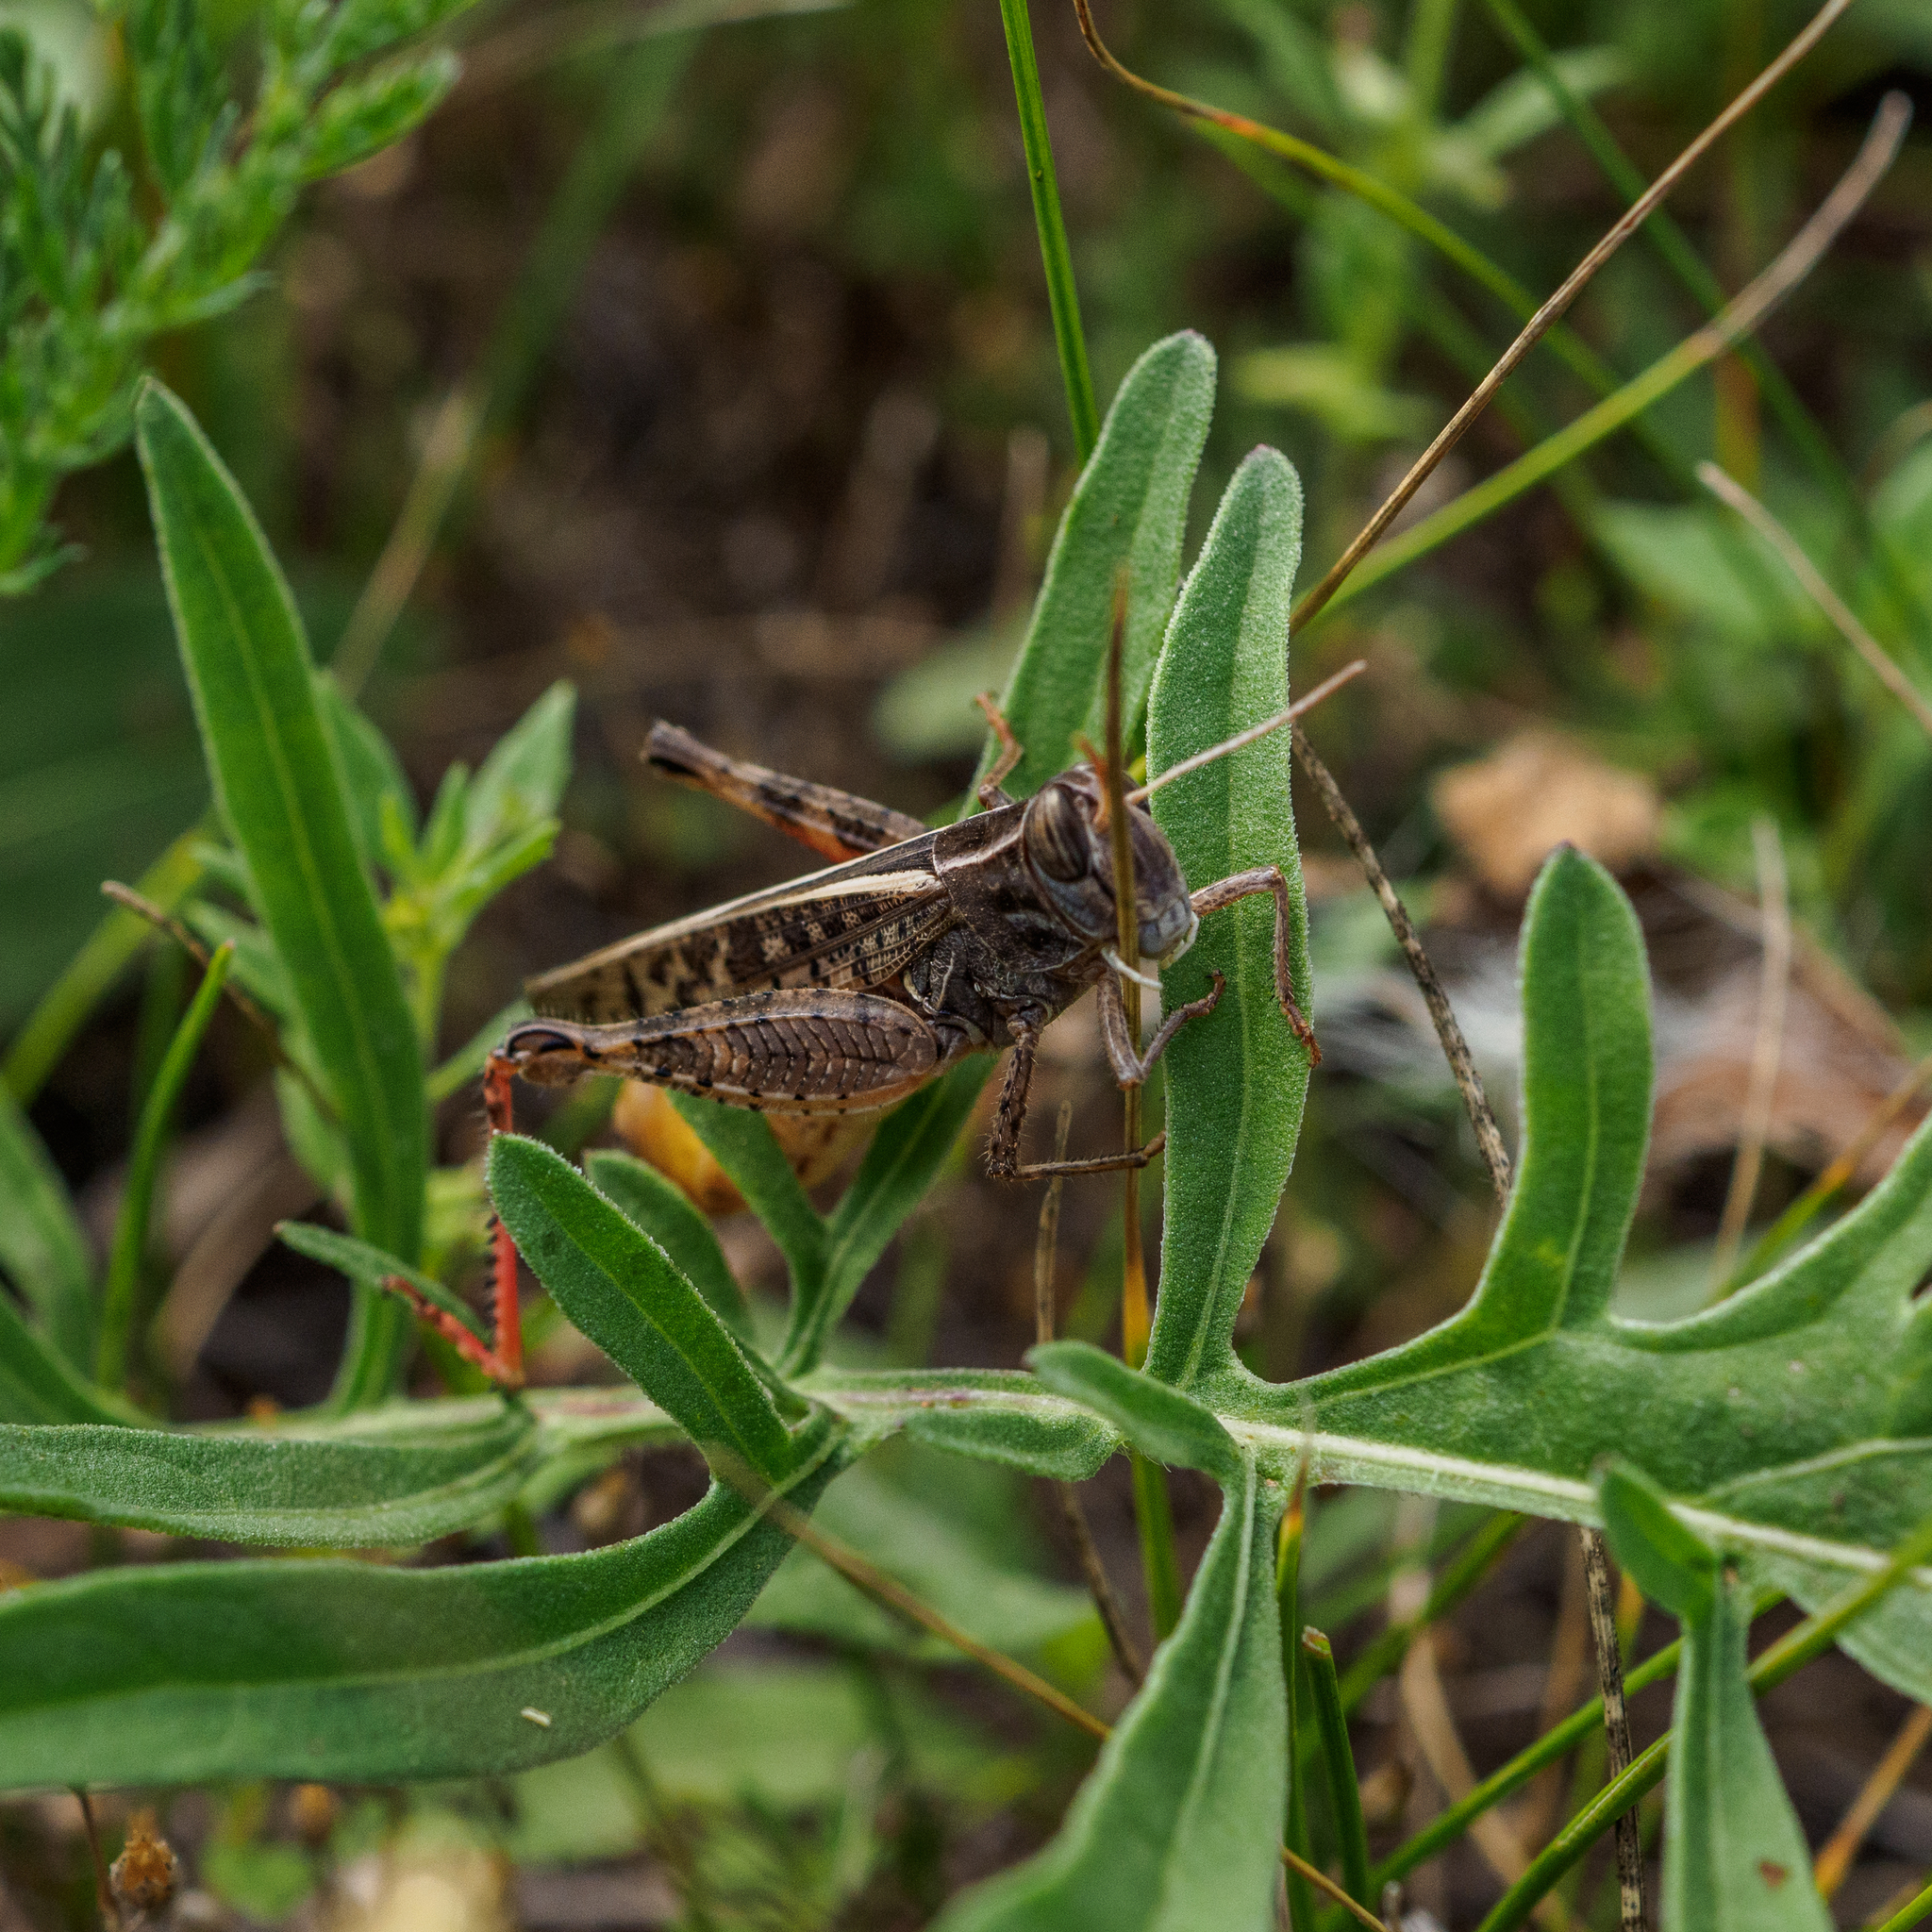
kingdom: Animalia
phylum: Arthropoda
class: Insecta
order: Orthoptera
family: Acrididae
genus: Calliptamus
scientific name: Calliptamus italicus
